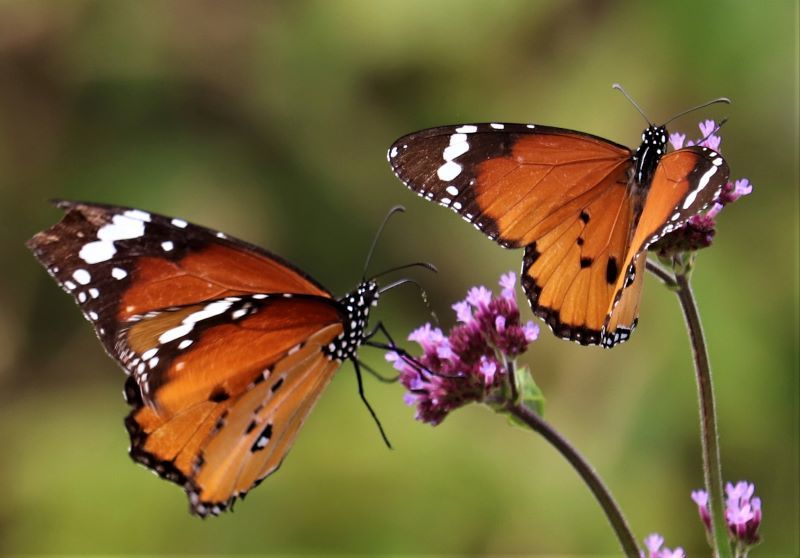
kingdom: Animalia
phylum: Arthropoda
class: Insecta
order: Lepidoptera
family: Nymphalidae
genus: Danaus
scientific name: Danaus chrysippus
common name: Plain tiger
